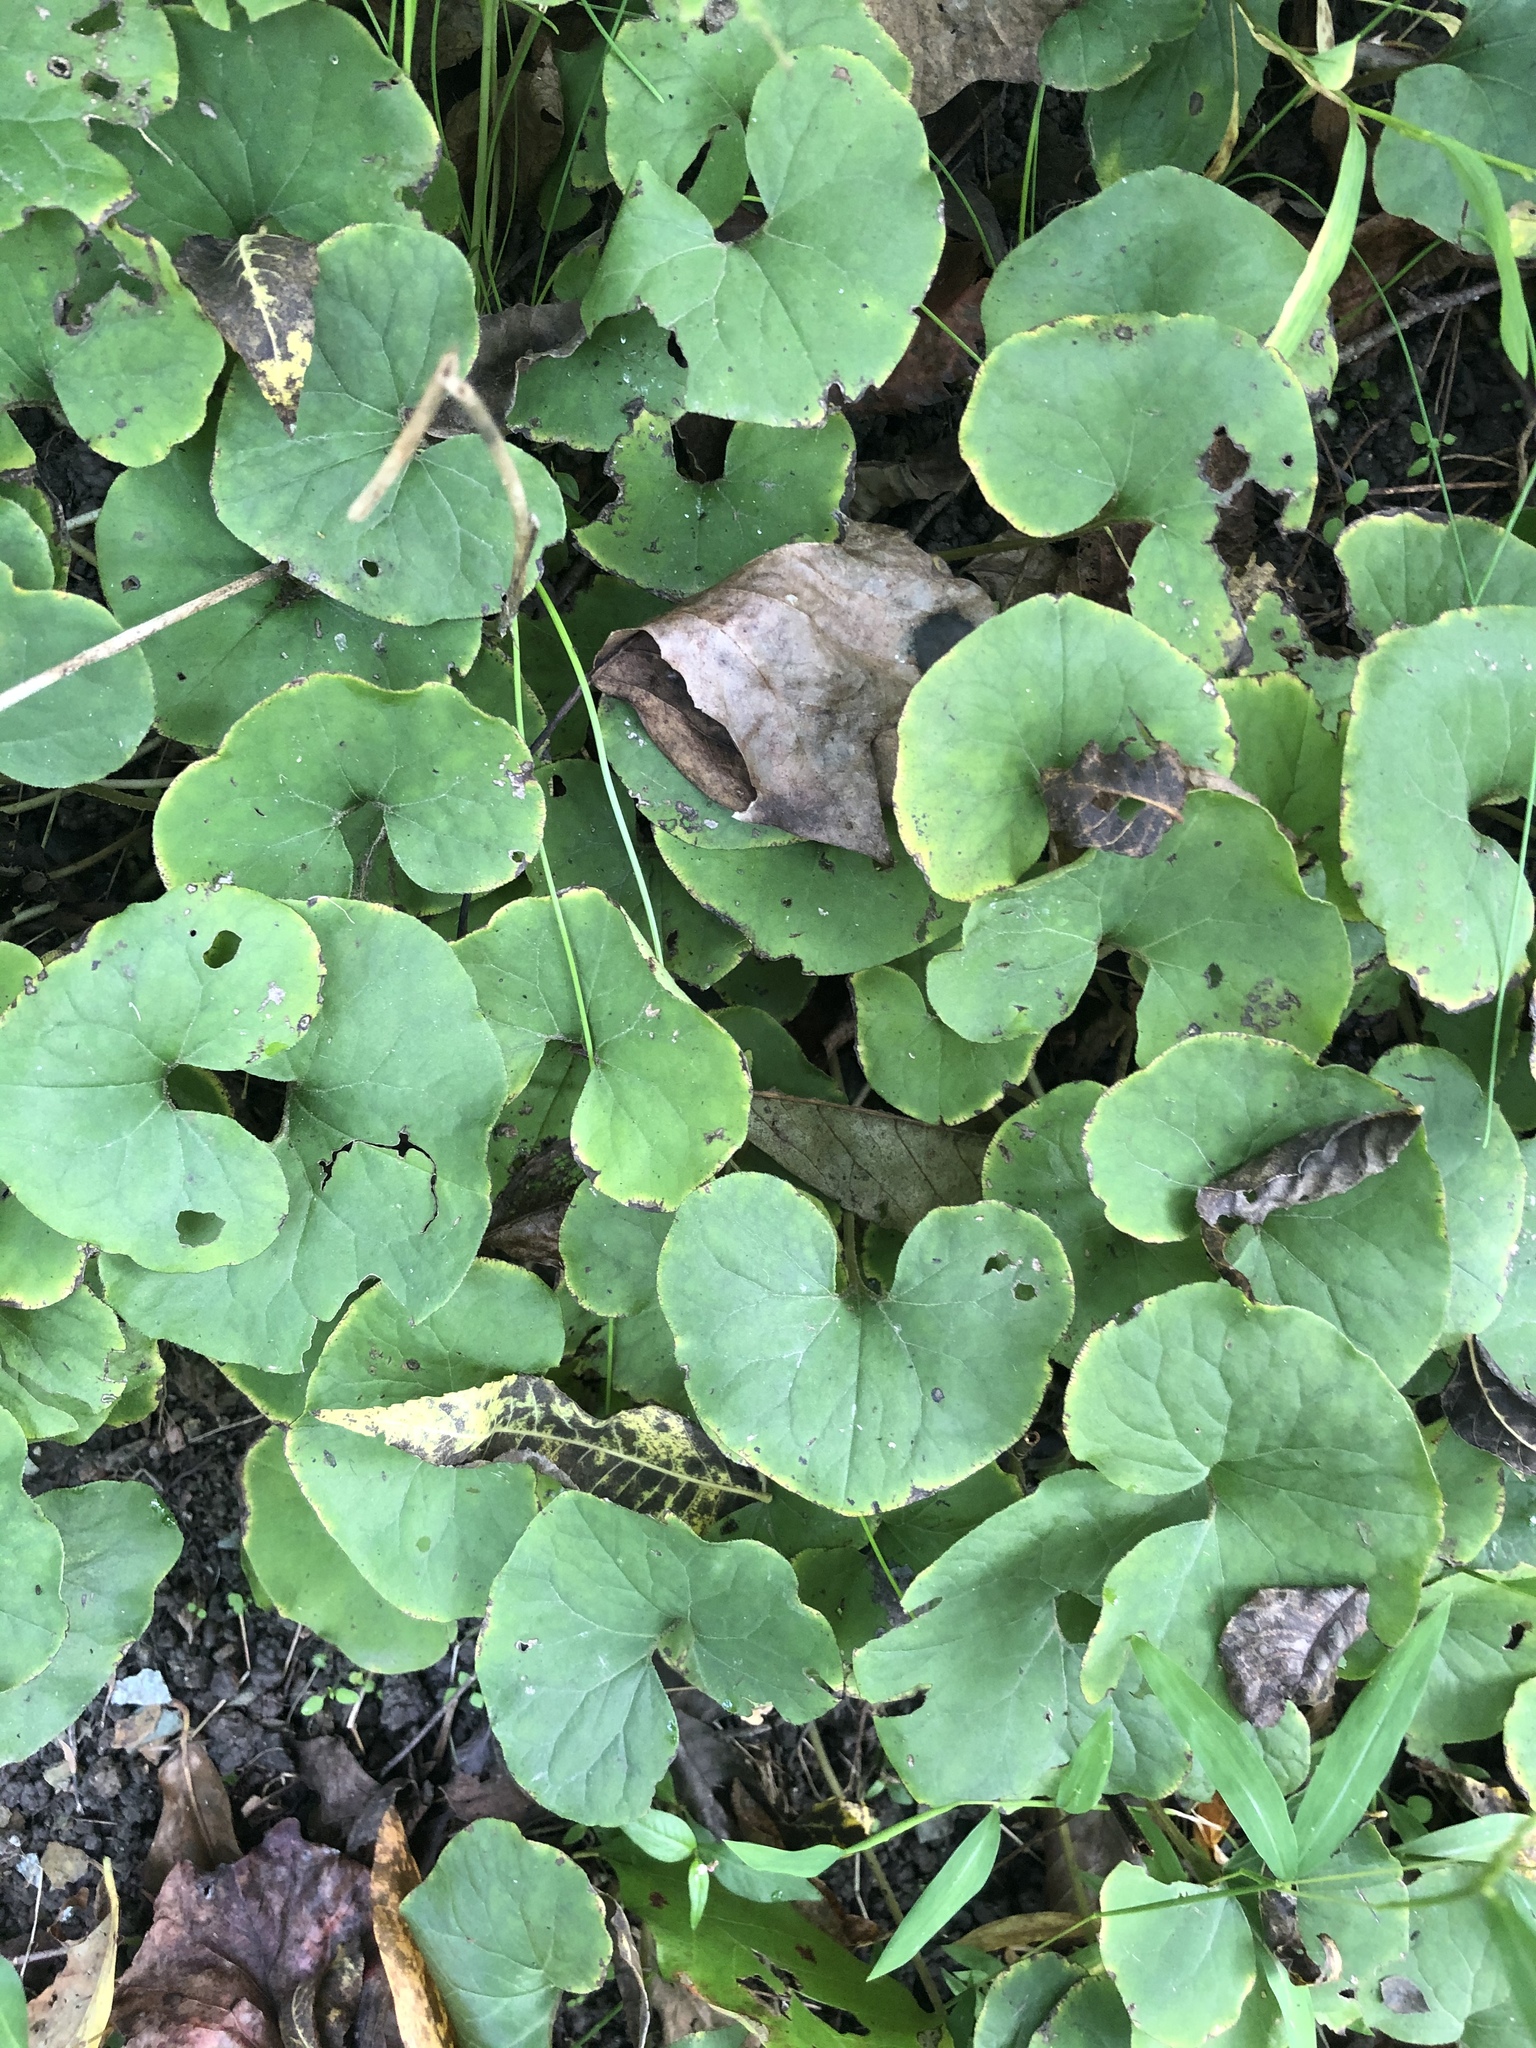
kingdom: Plantae
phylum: Tracheophyta
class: Magnoliopsida
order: Piperales
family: Aristolochiaceae
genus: Asarum
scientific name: Asarum canadense
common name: Wild ginger
